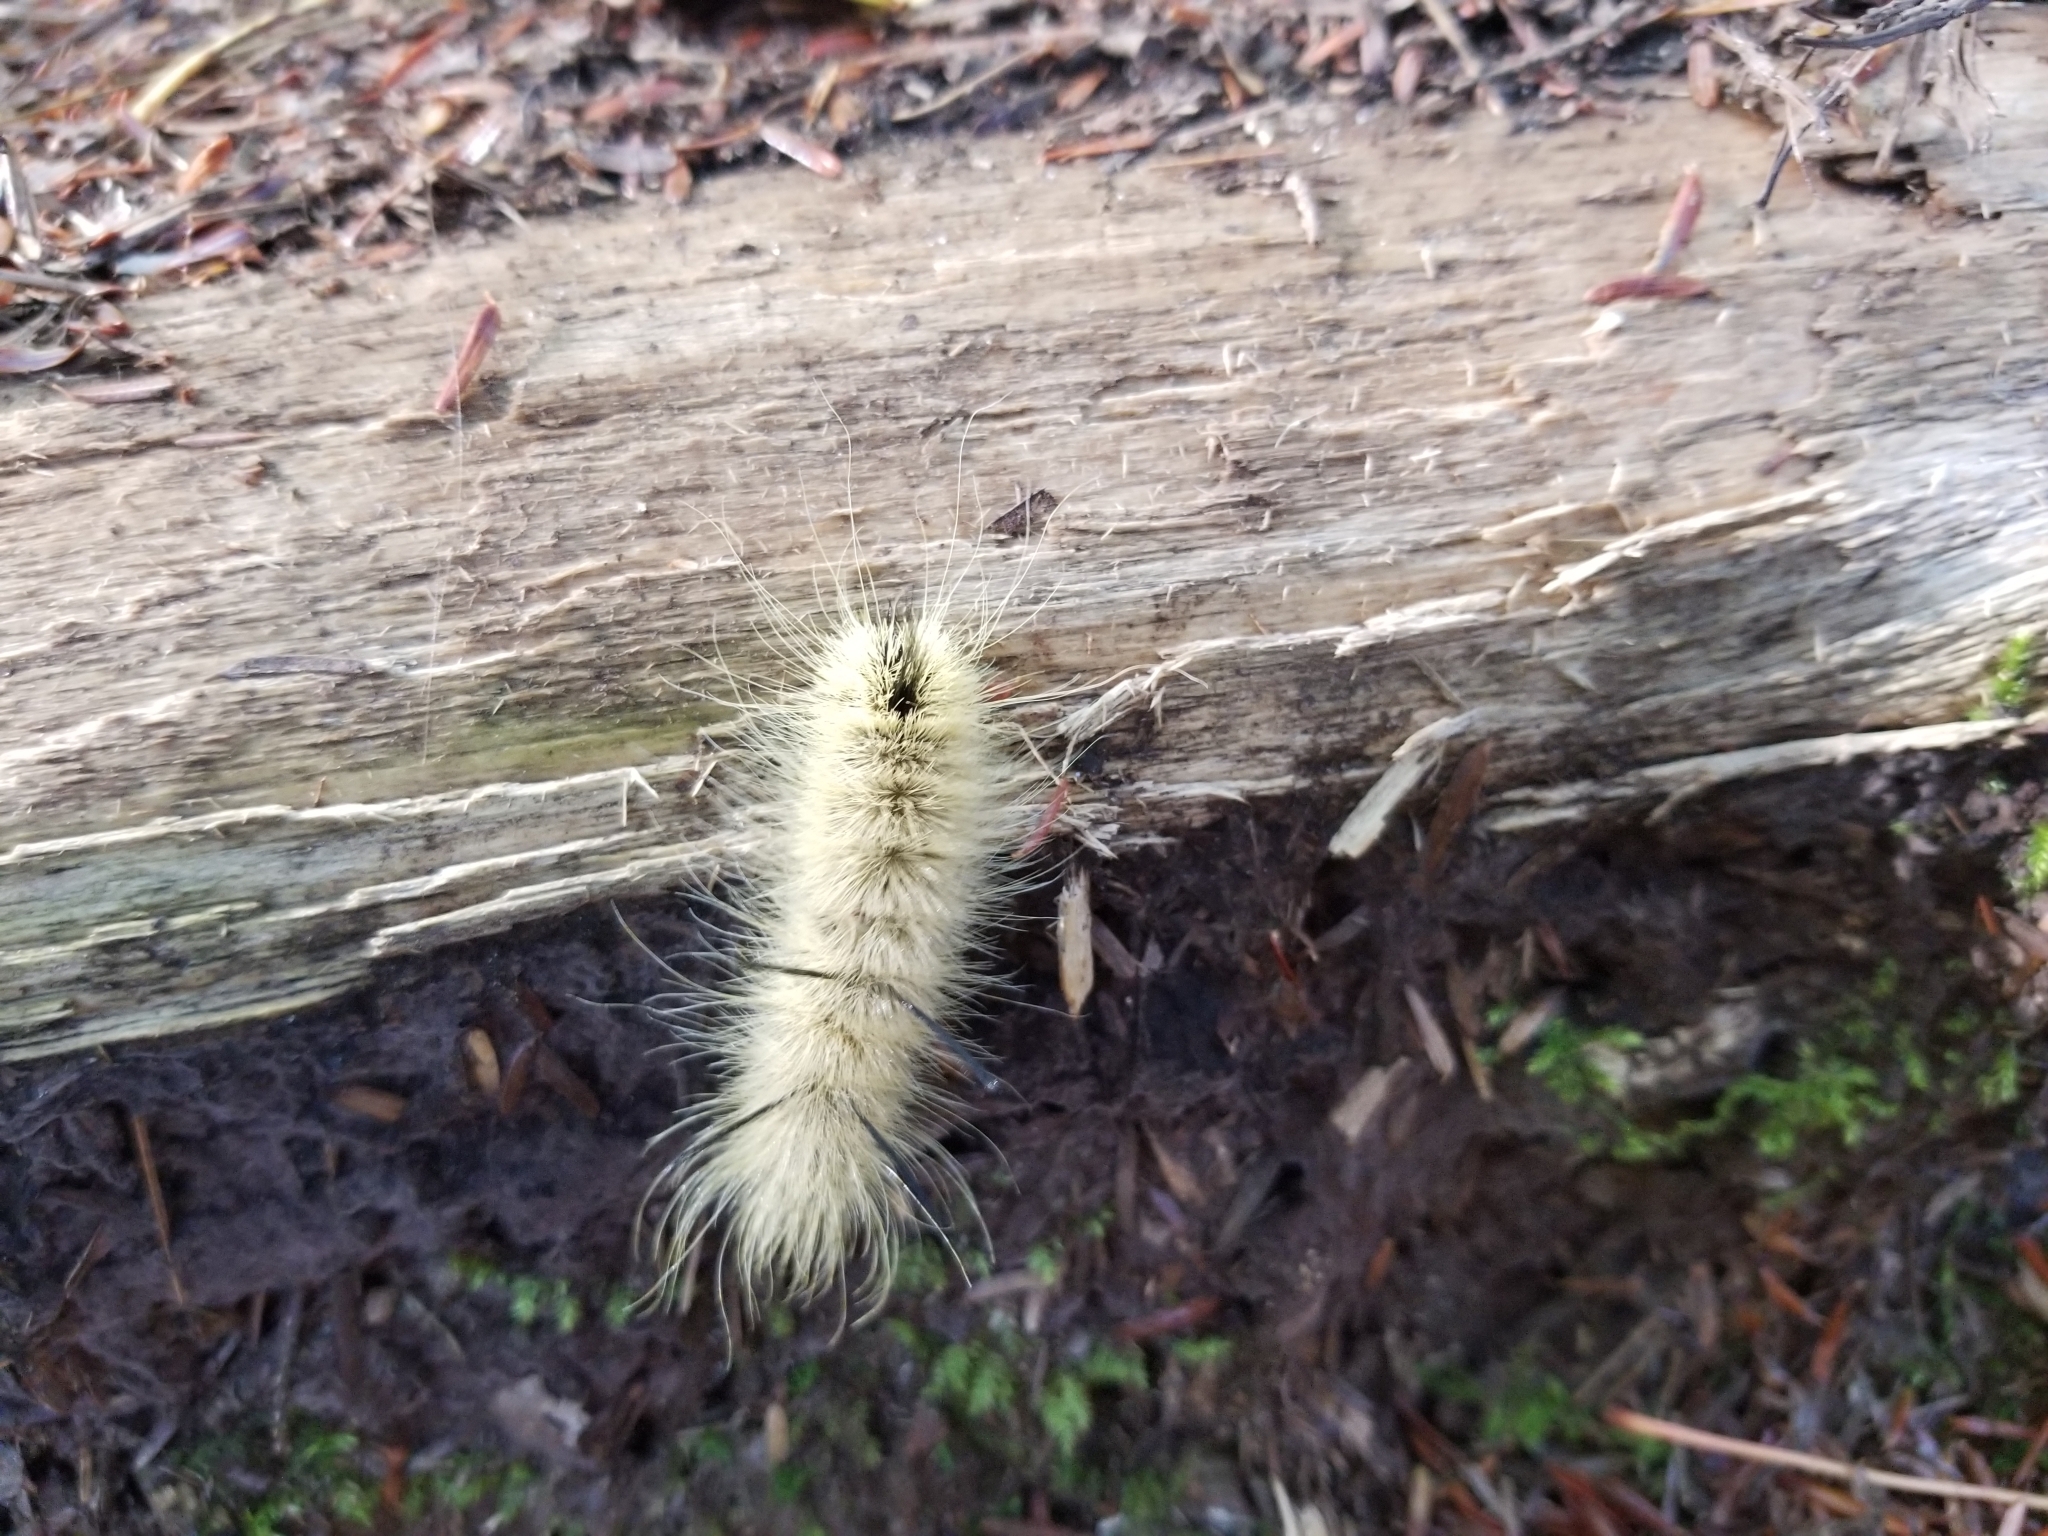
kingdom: Animalia
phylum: Arthropoda
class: Insecta
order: Lepidoptera
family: Noctuidae
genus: Acronicta
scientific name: Acronicta americana
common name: American dagger
